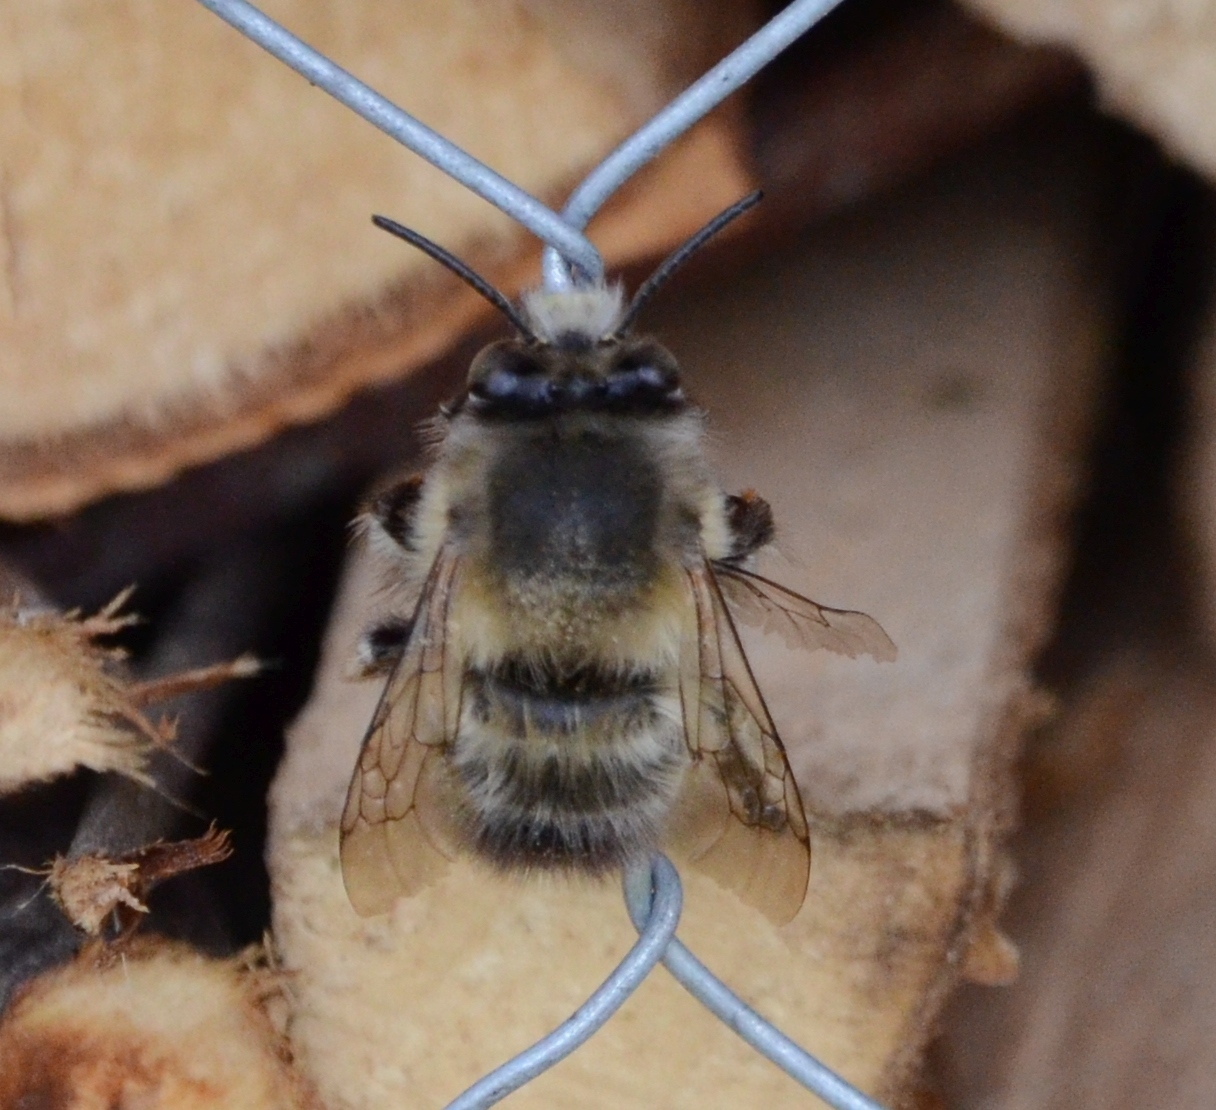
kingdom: Animalia
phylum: Arthropoda
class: Insecta
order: Hymenoptera
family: Apidae
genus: Anthophora
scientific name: Anthophora plumipes
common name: Hairy-footed flower bee
